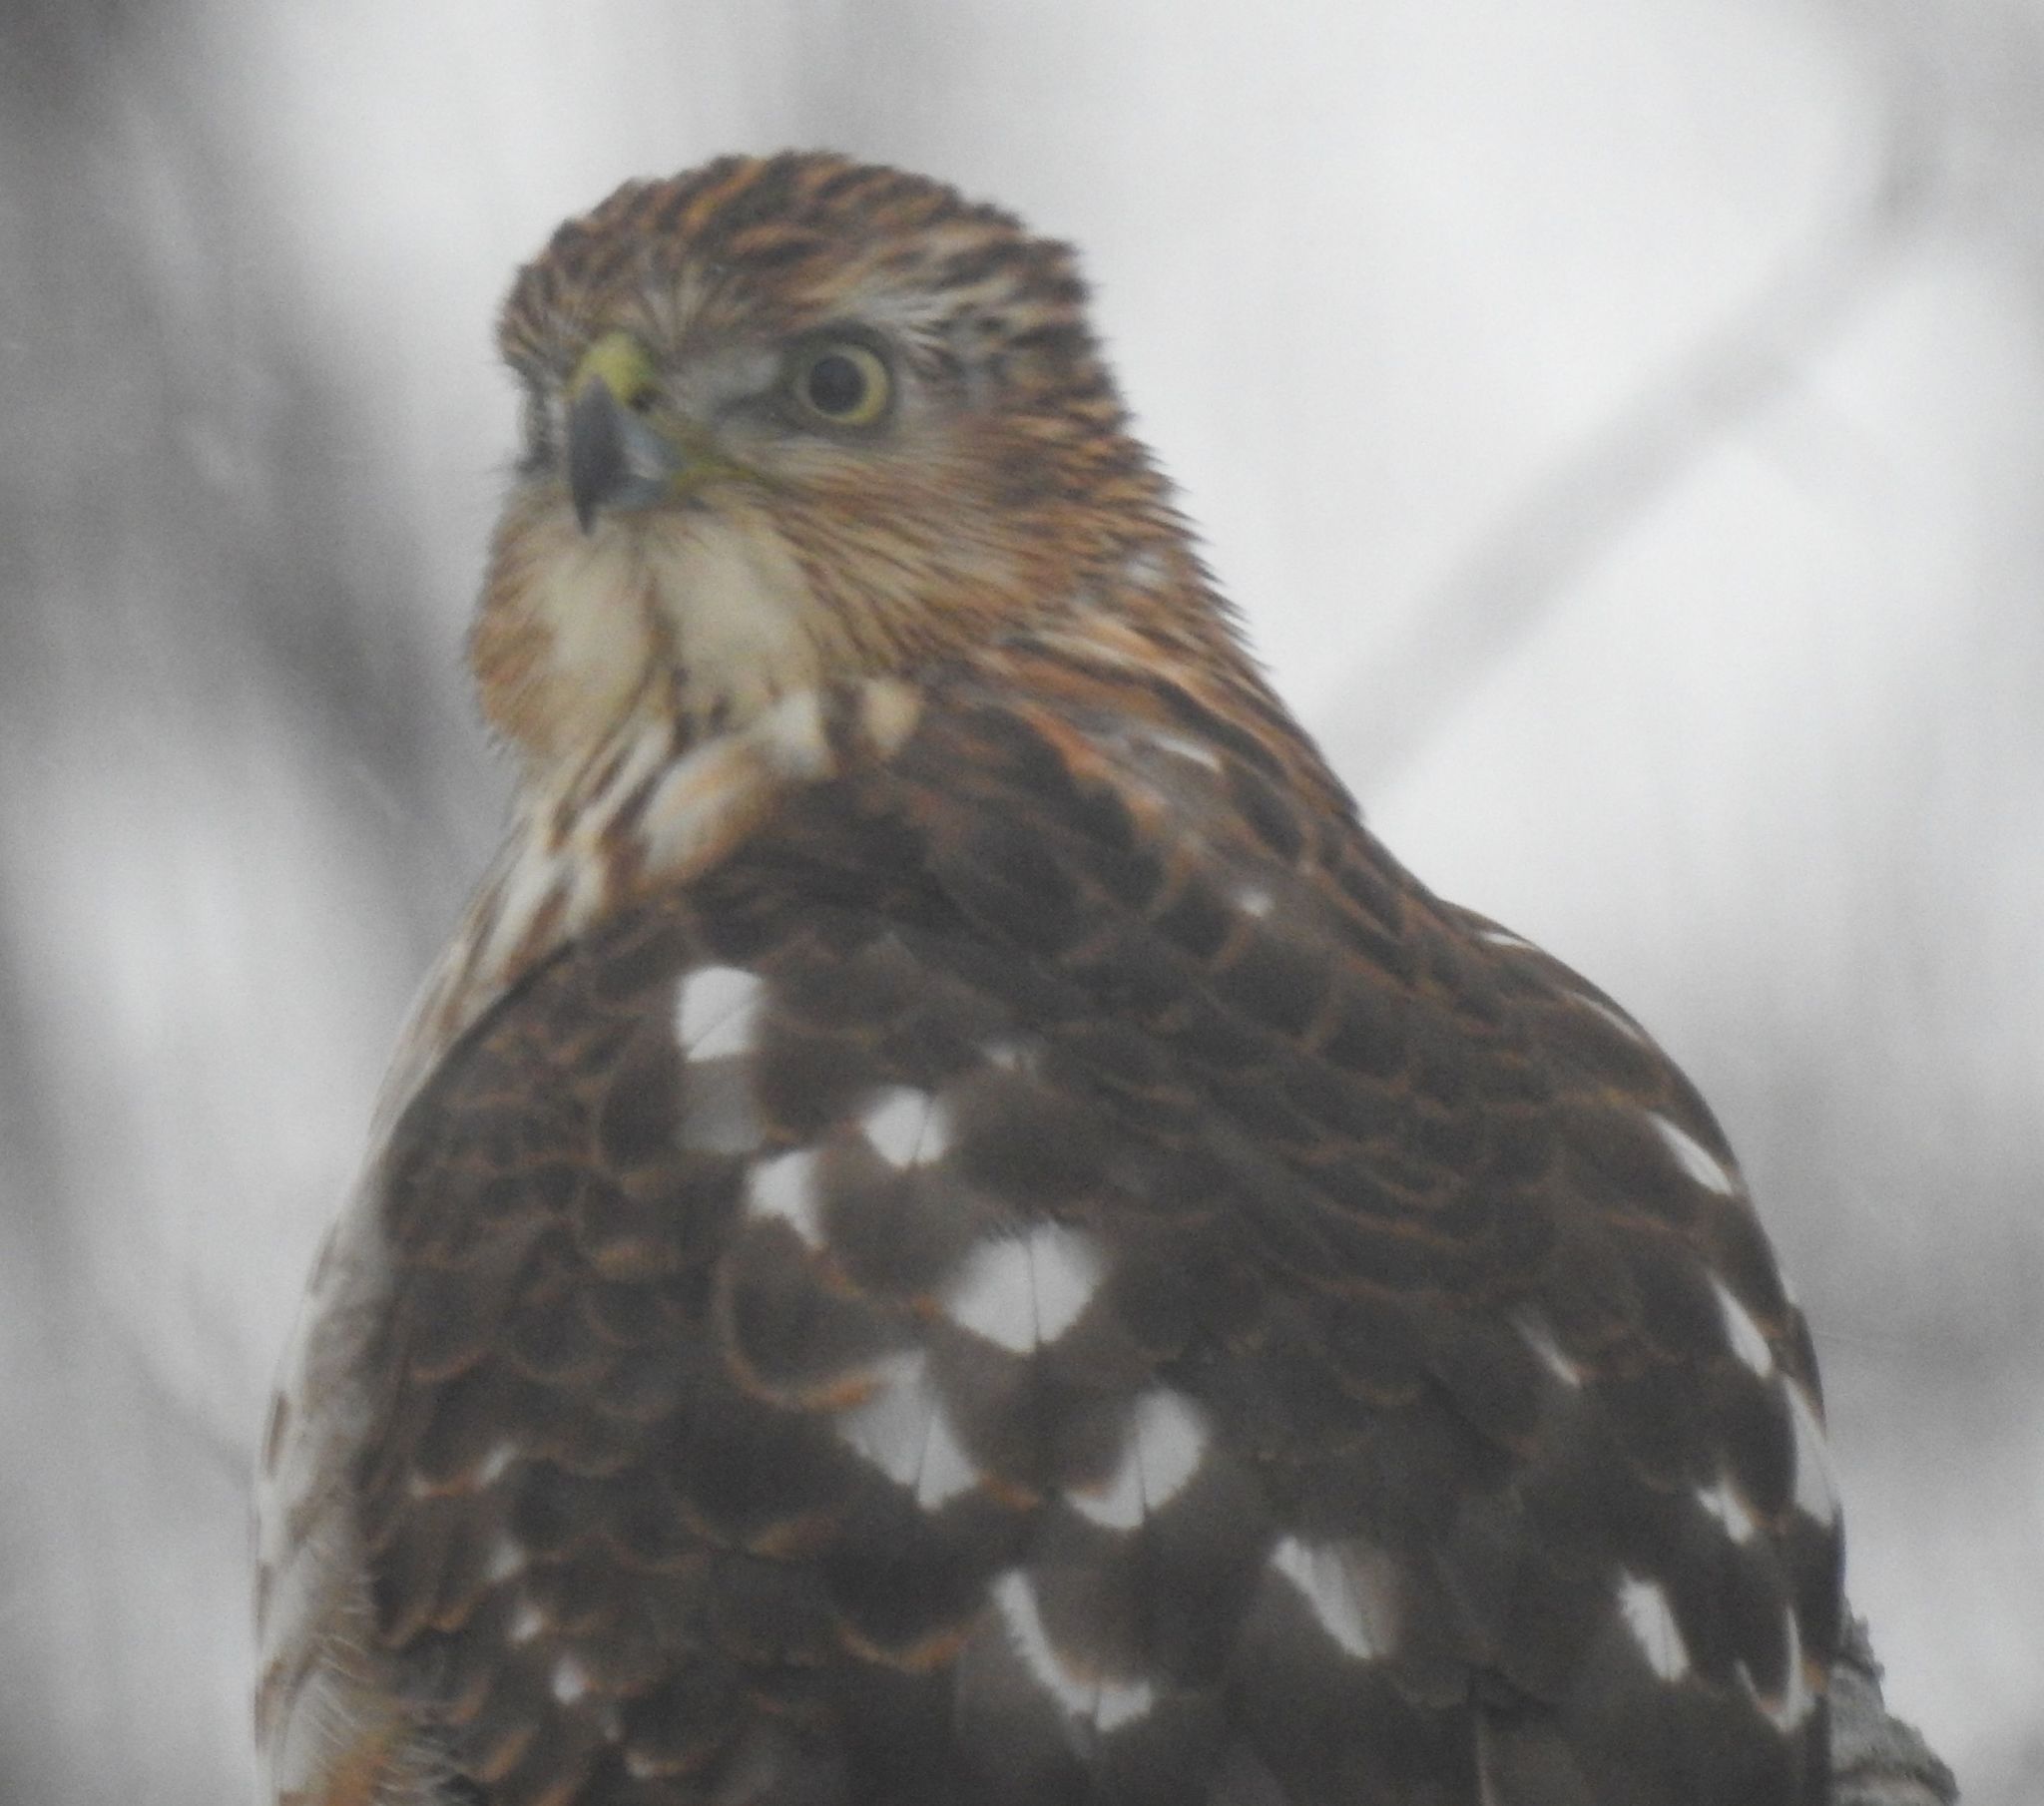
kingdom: Animalia
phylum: Chordata
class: Aves
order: Accipitriformes
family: Accipitridae
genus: Accipiter
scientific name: Accipiter cooperii
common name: Cooper's hawk
